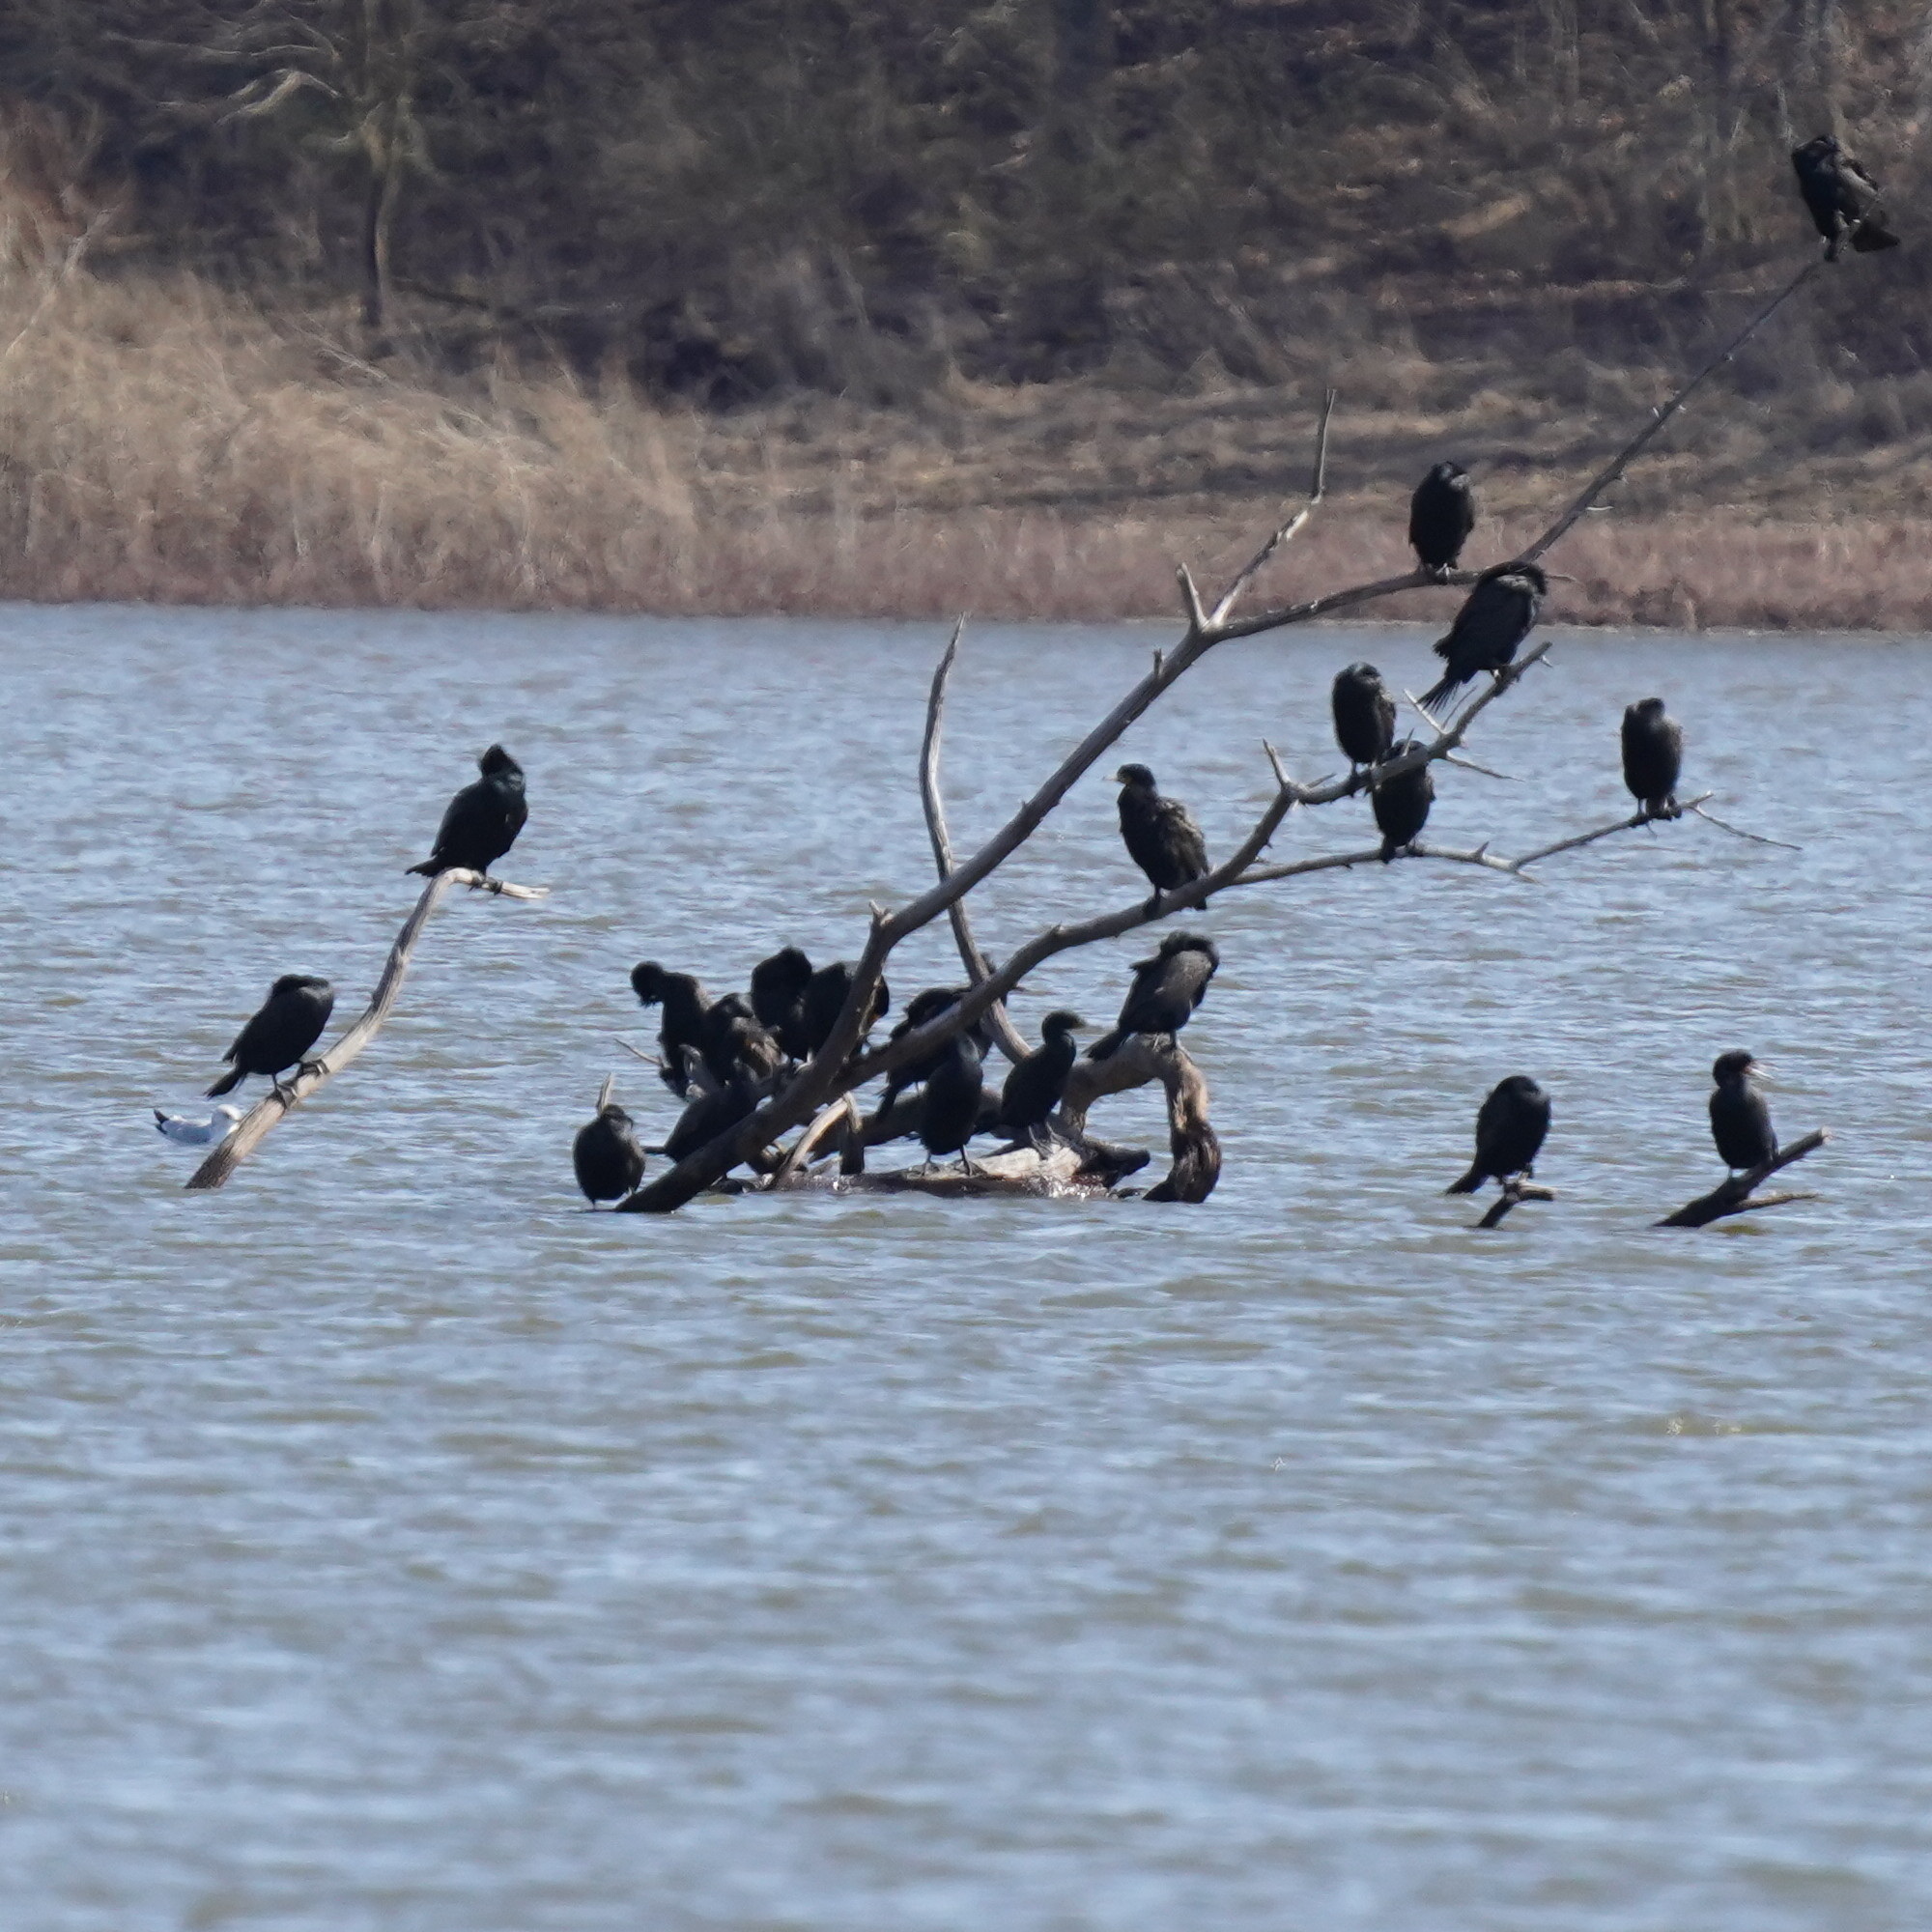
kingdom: Animalia
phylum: Chordata
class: Aves
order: Suliformes
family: Phalacrocoracidae
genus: Phalacrocorax
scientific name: Phalacrocorax auritus
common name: Double-crested cormorant
